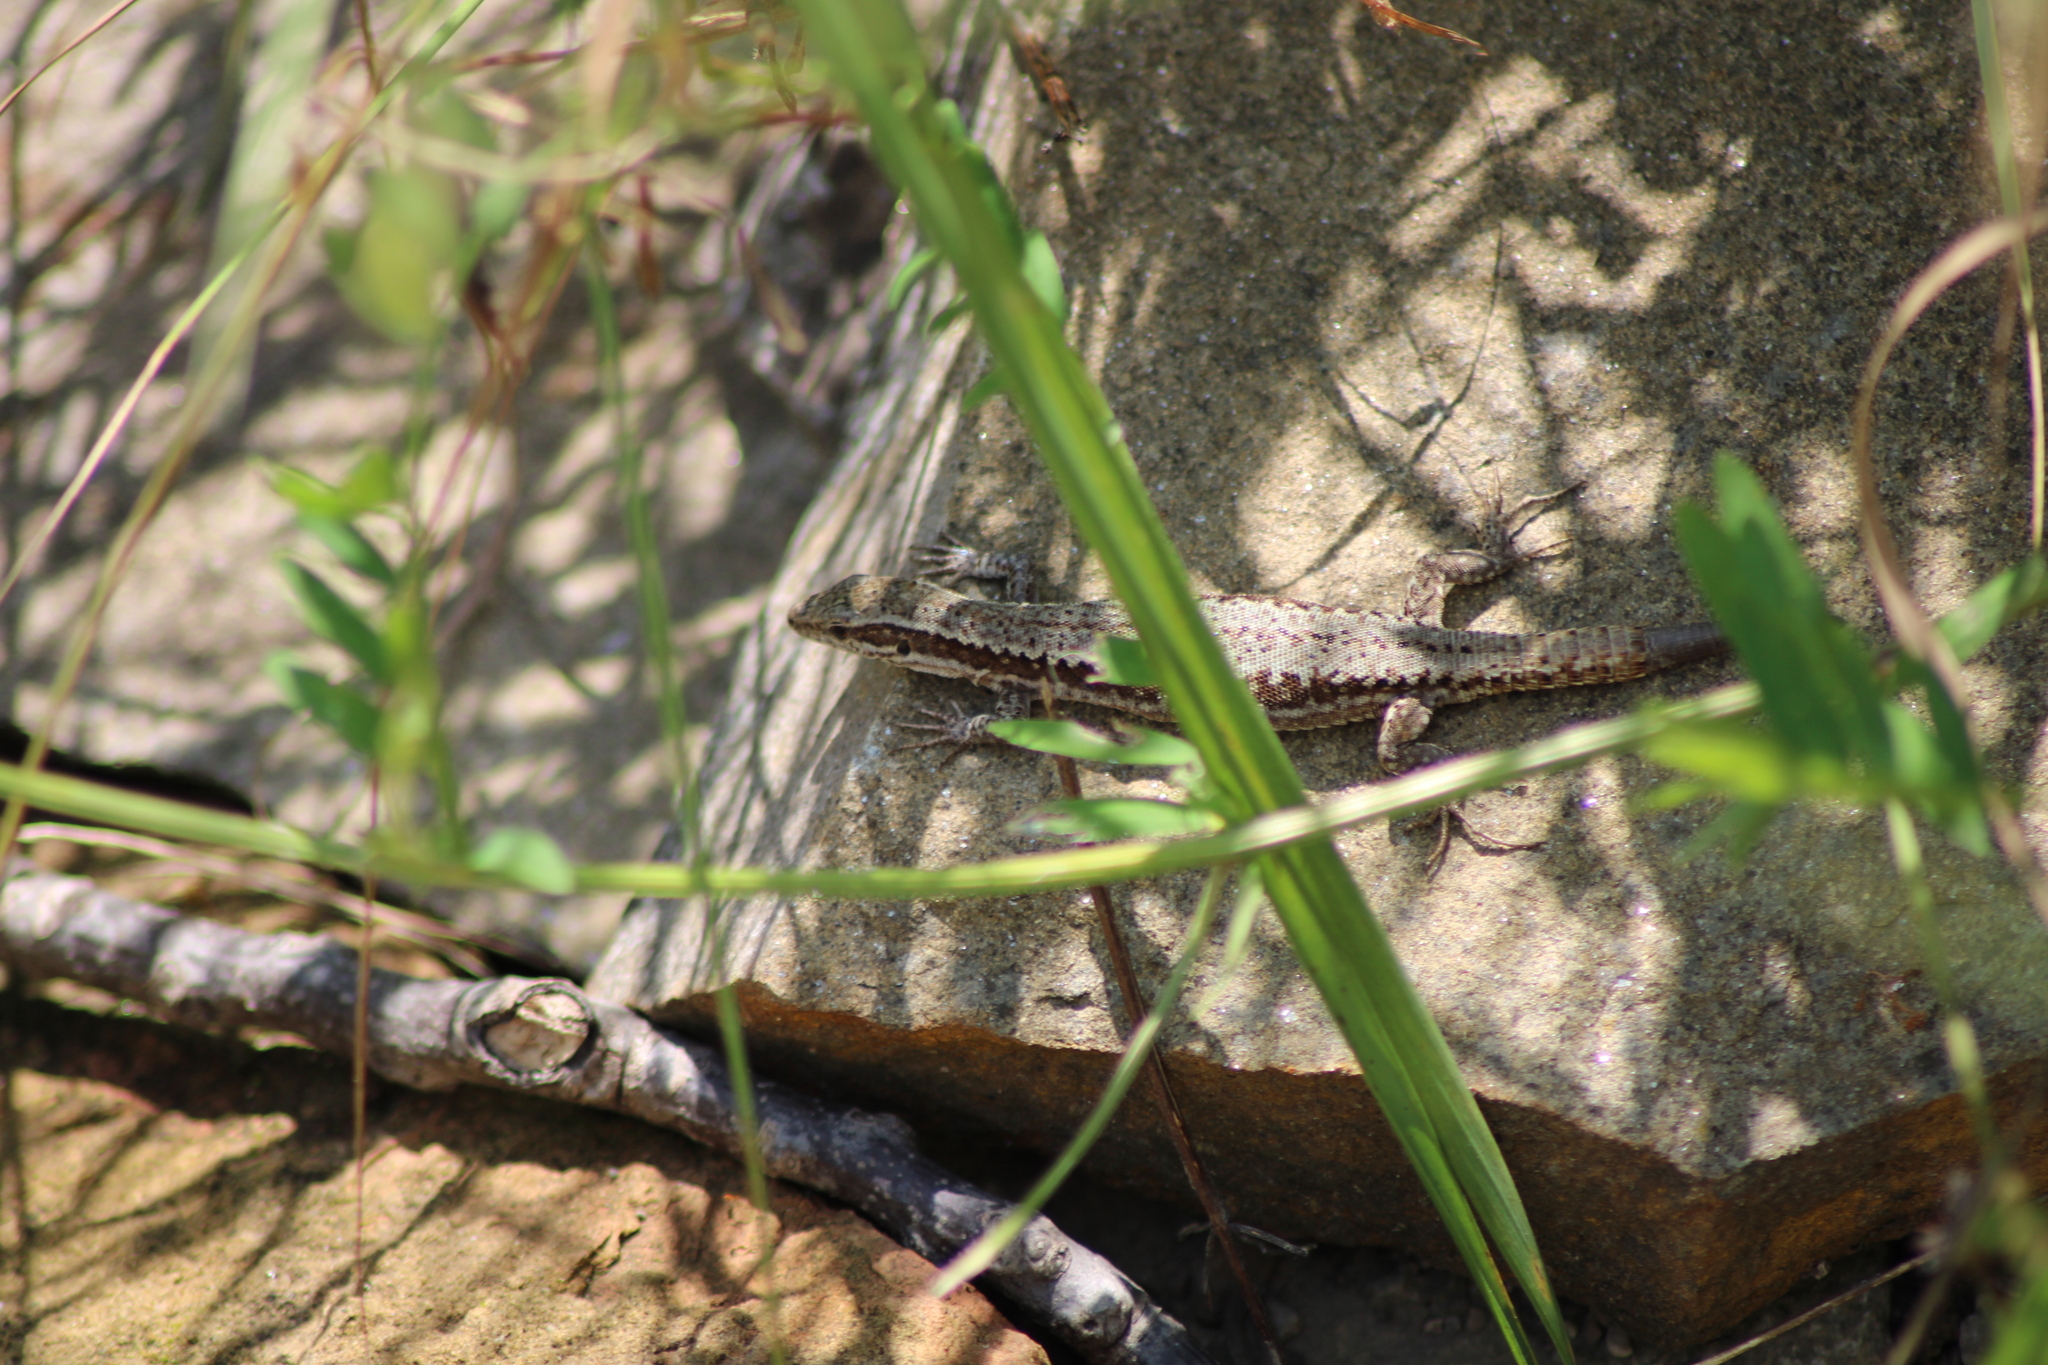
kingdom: Animalia
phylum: Chordata
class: Squamata
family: Lacertidae
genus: Podarcis
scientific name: Podarcis muralis
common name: Common wall lizard
